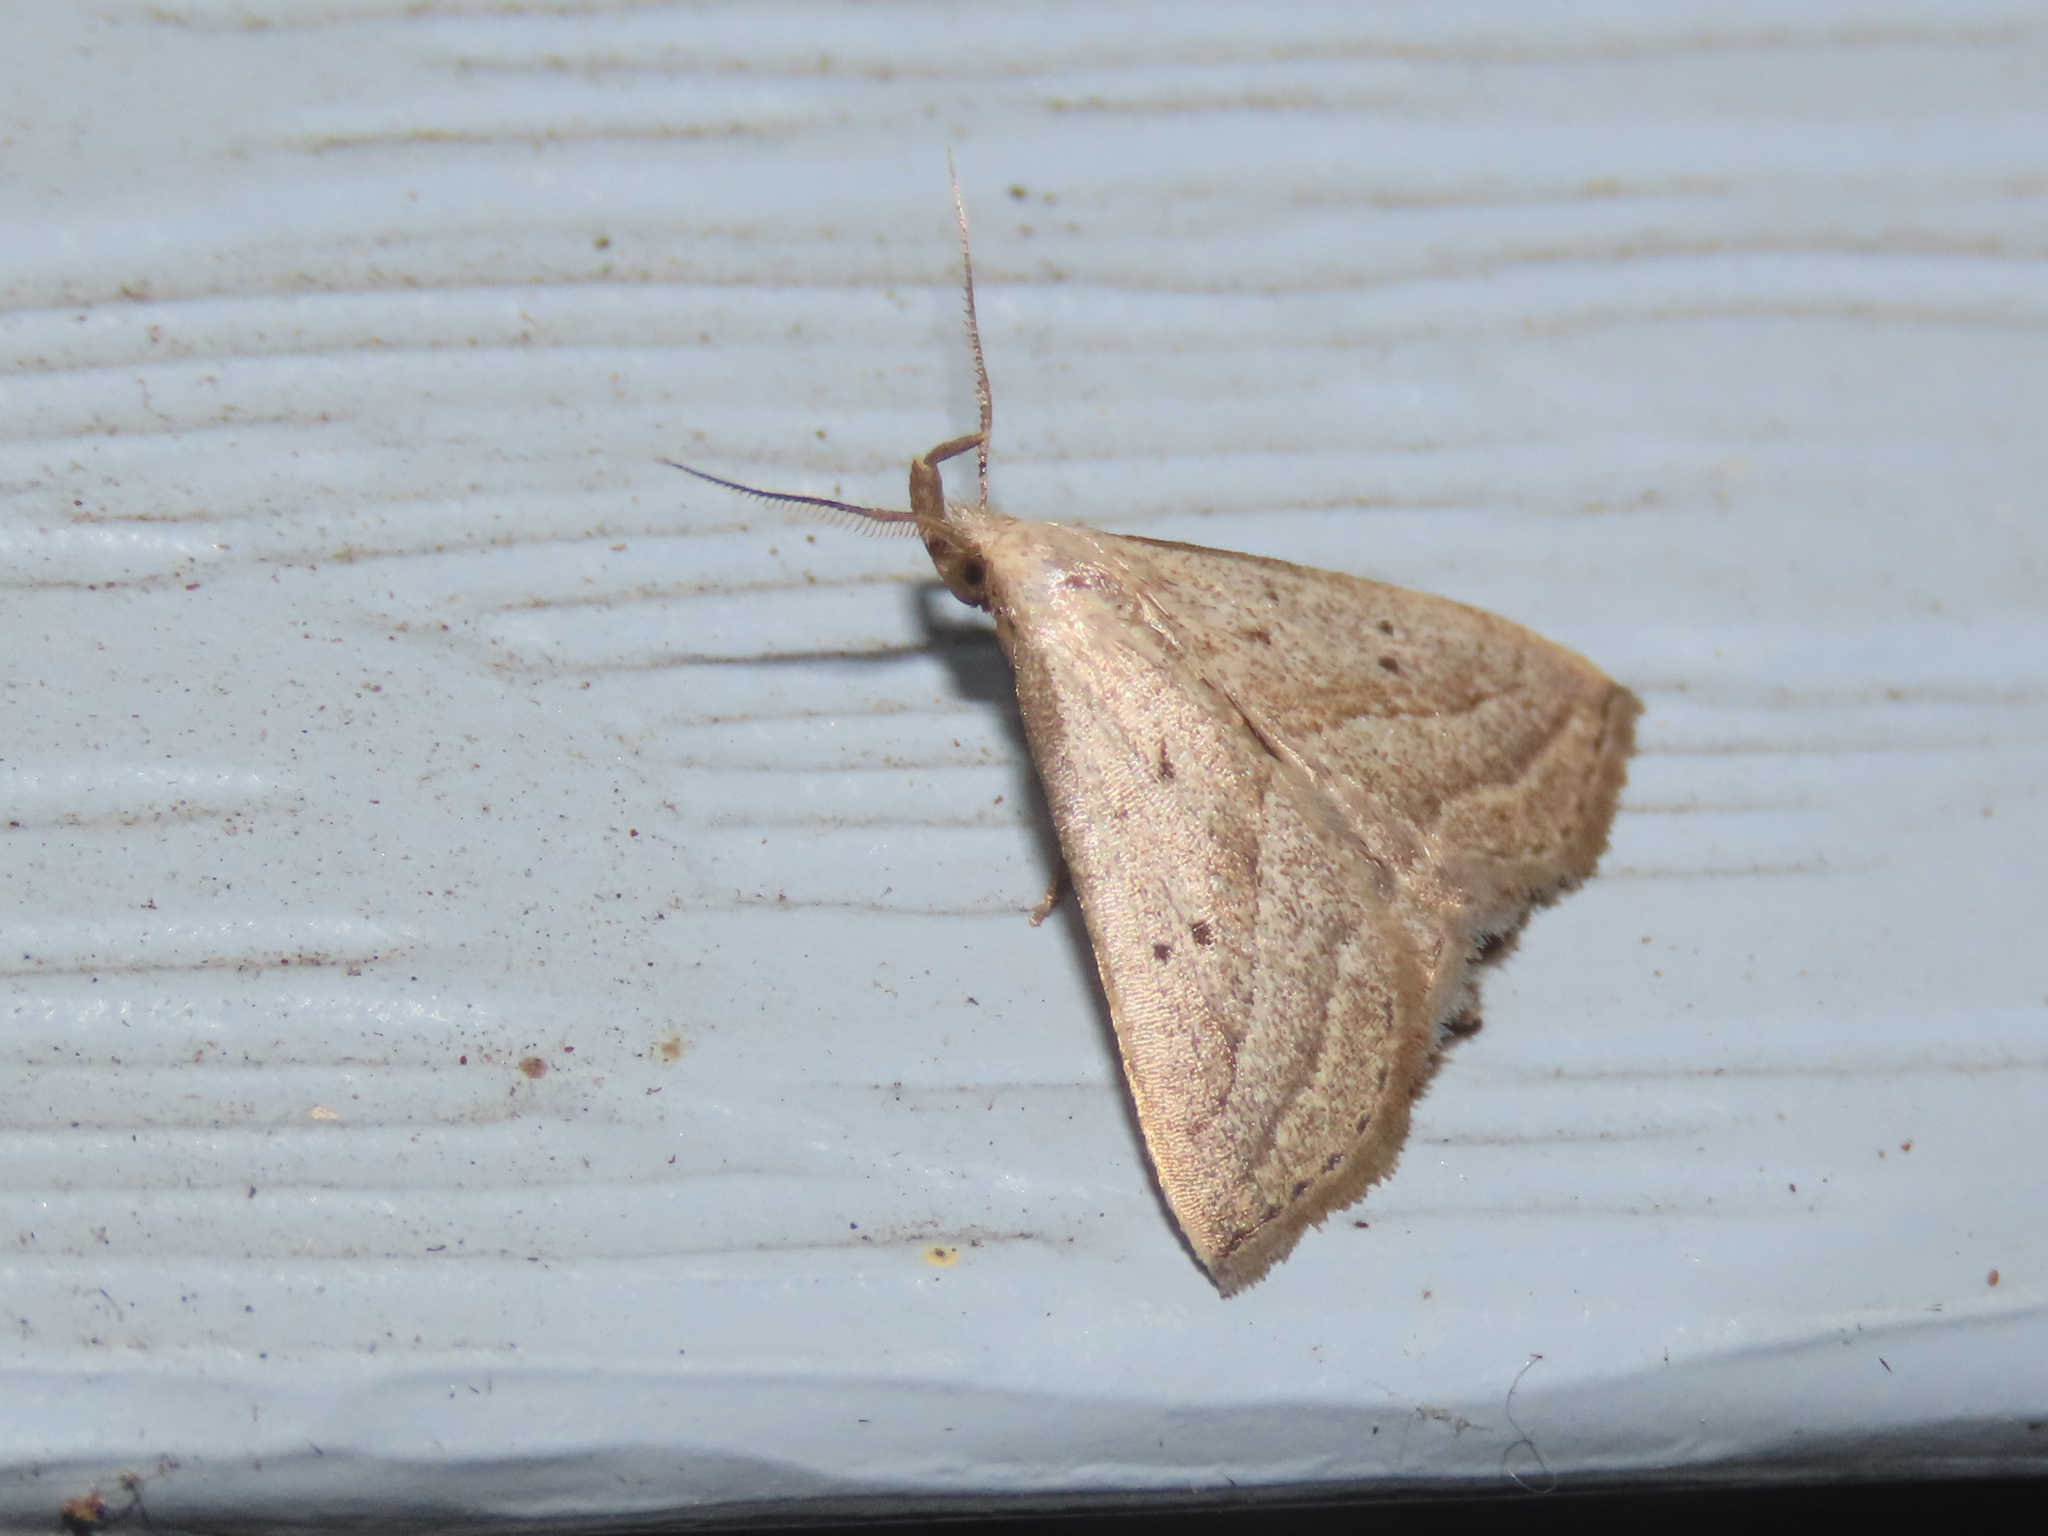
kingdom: Animalia
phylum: Arthropoda
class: Insecta
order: Lepidoptera
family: Erebidae
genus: Macrochilo
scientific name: Macrochilo hypocritalis
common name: Twin-dotted owlet
